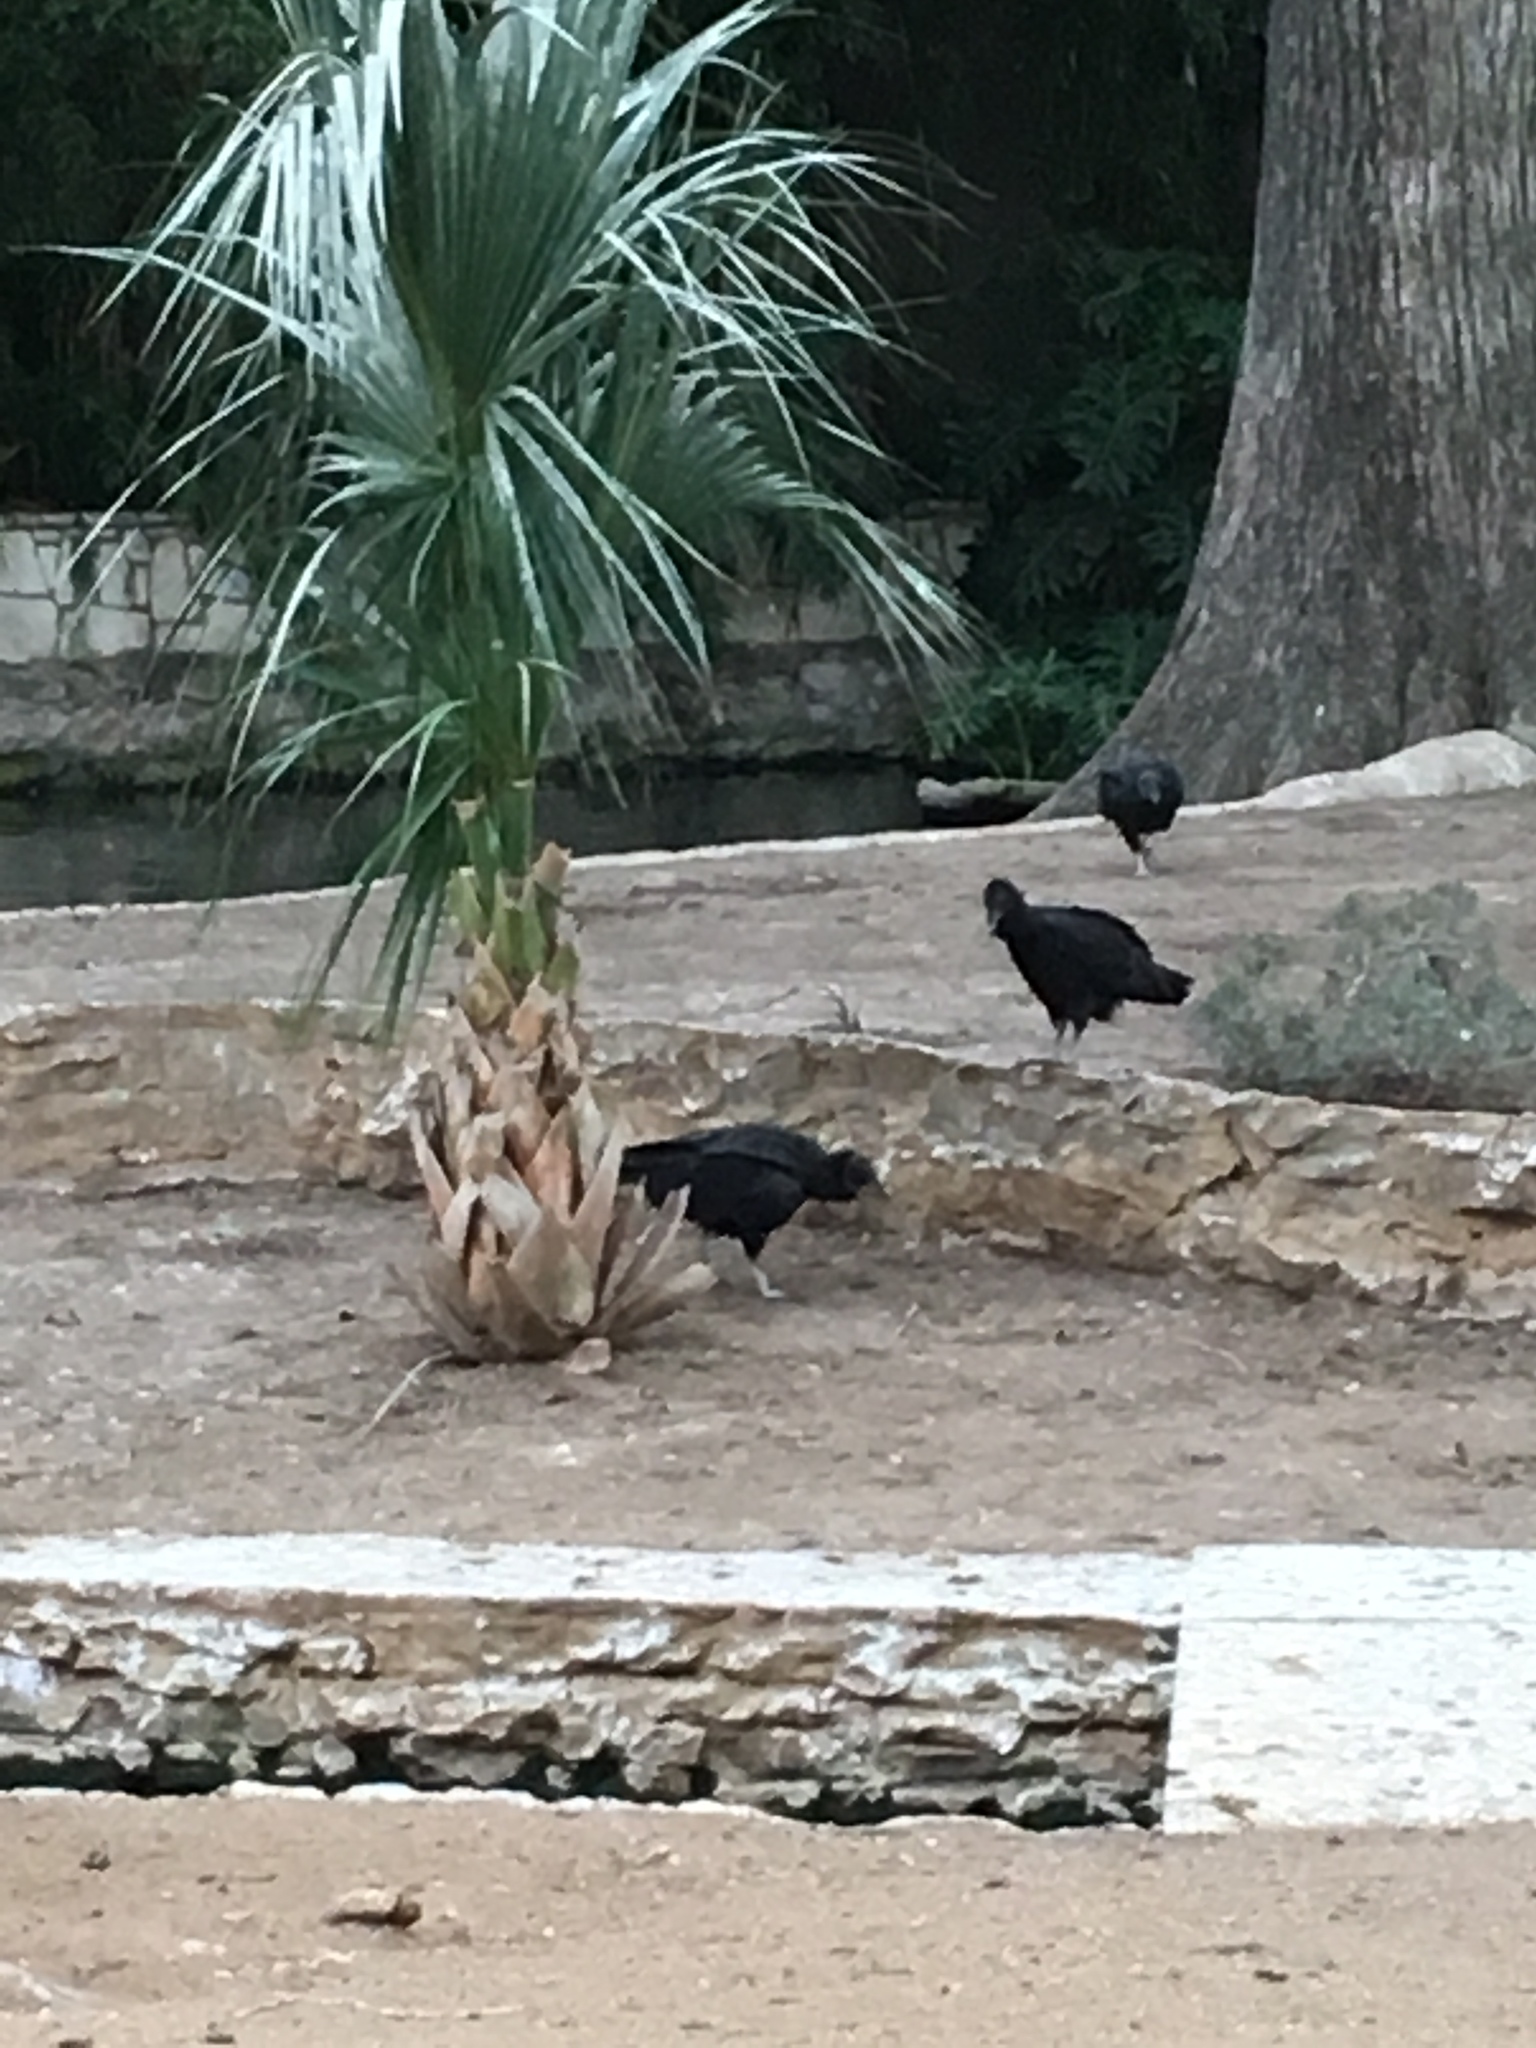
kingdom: Animalia
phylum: Chordata
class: Aves
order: Accipitriformes
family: Cathartidae
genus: Coragyps
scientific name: Coragyps atratus
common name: Black vulture
